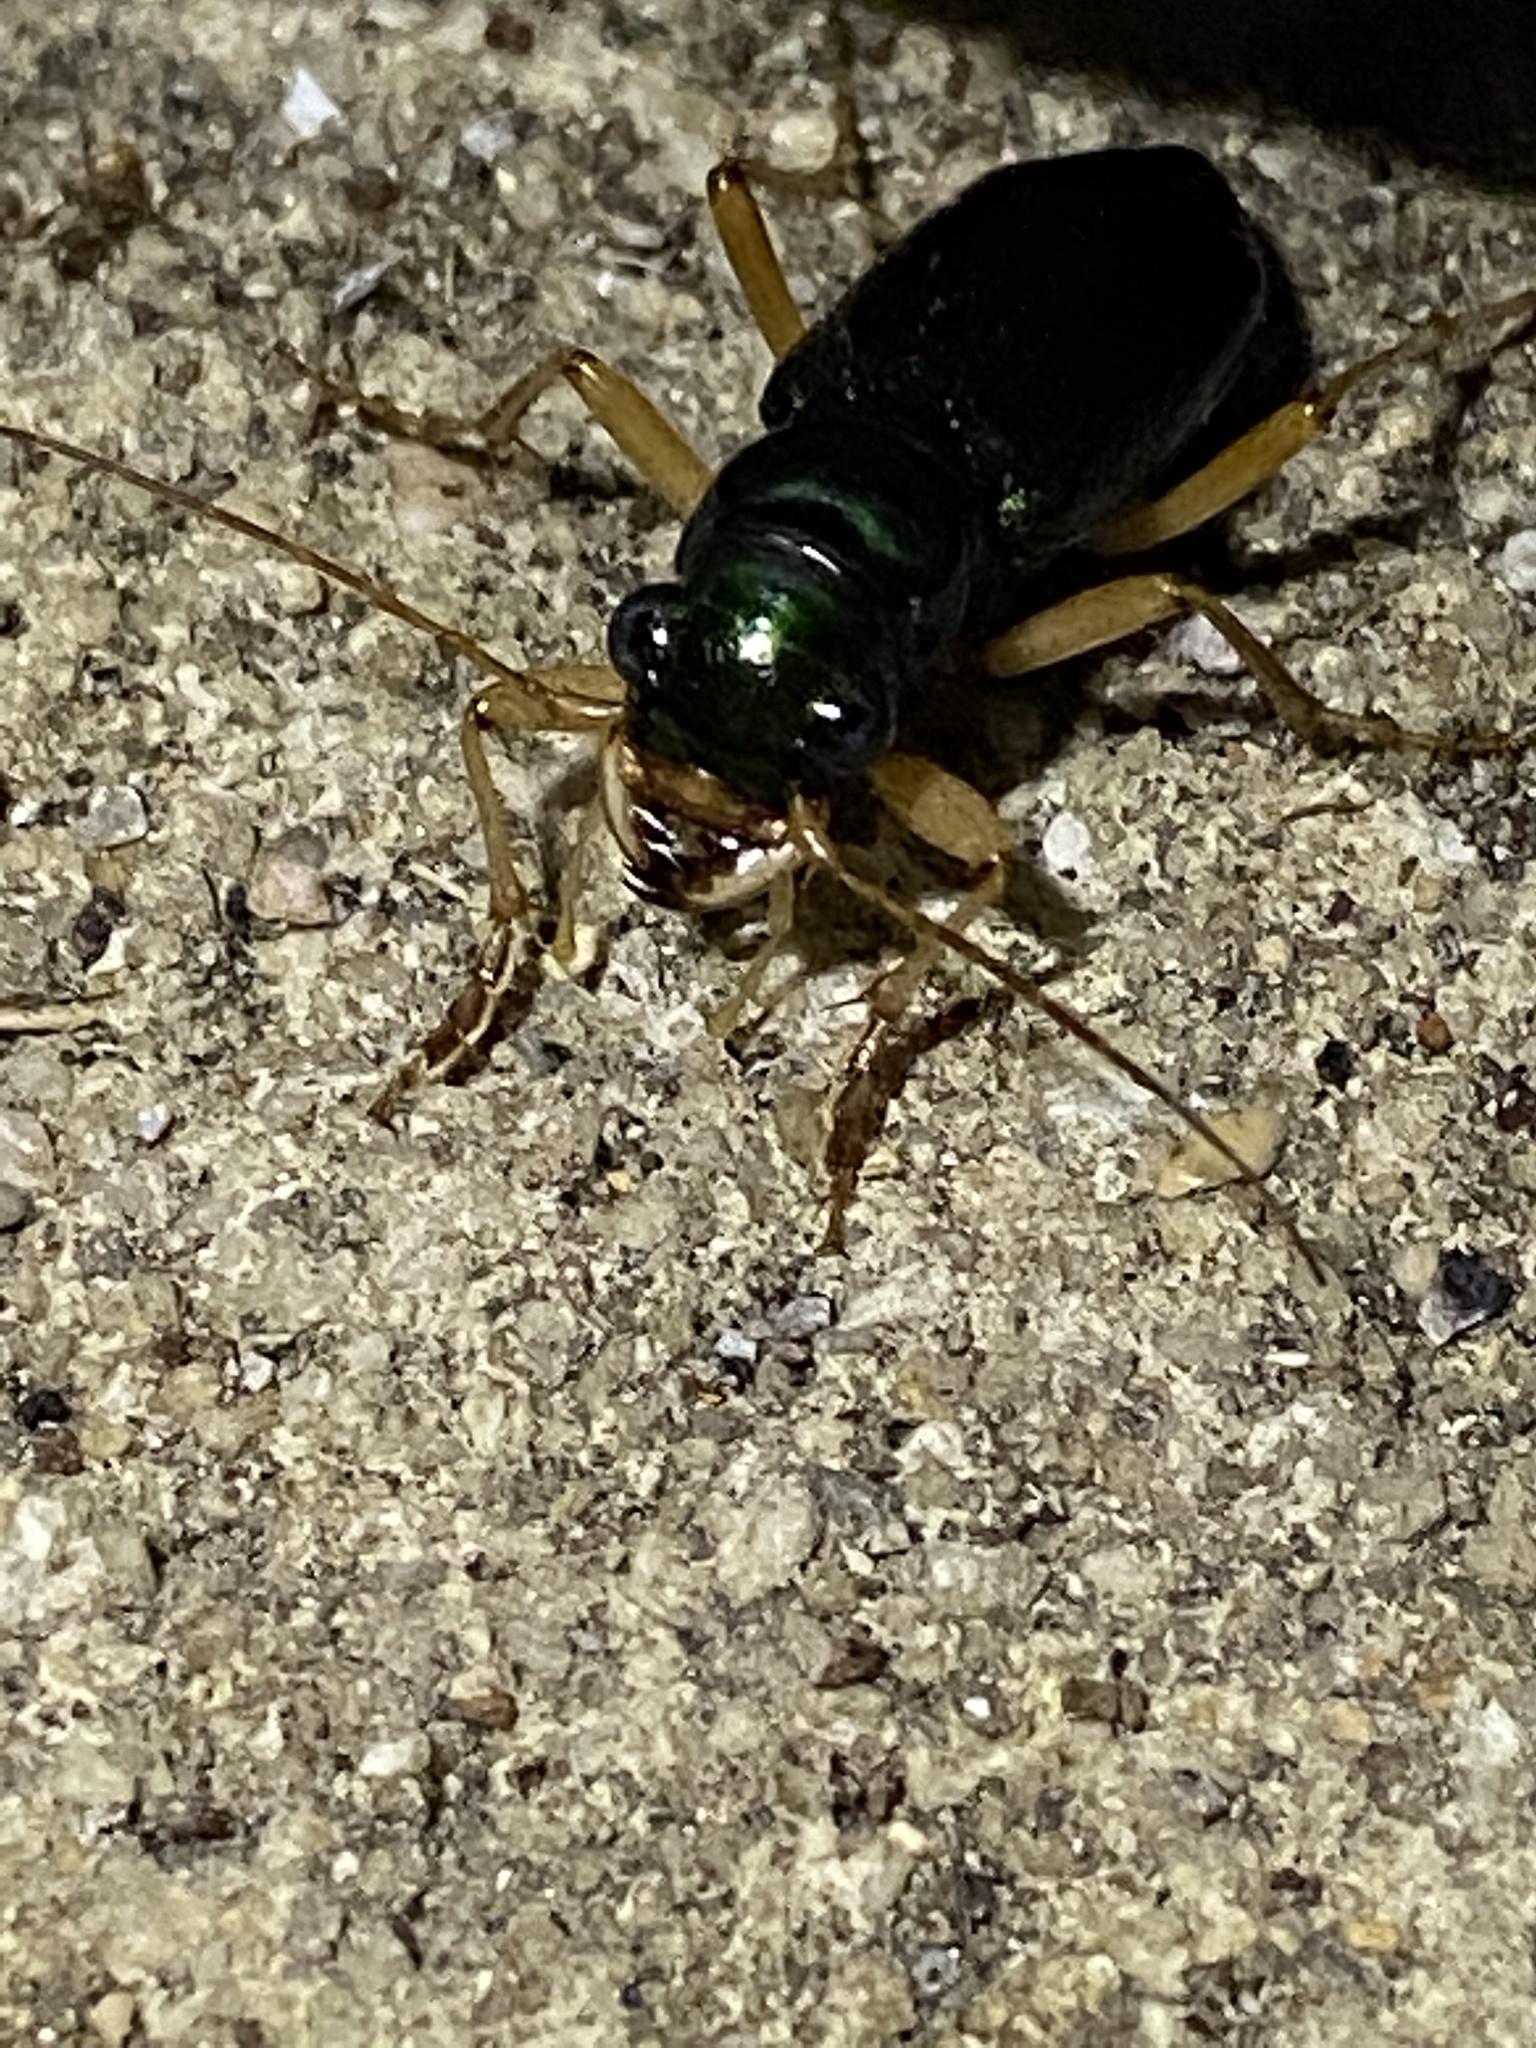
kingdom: Animalia
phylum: Arthropoda
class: Insecta
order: Coleoptera
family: Carabidae
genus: Tetracha
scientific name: Tetracha virginica
